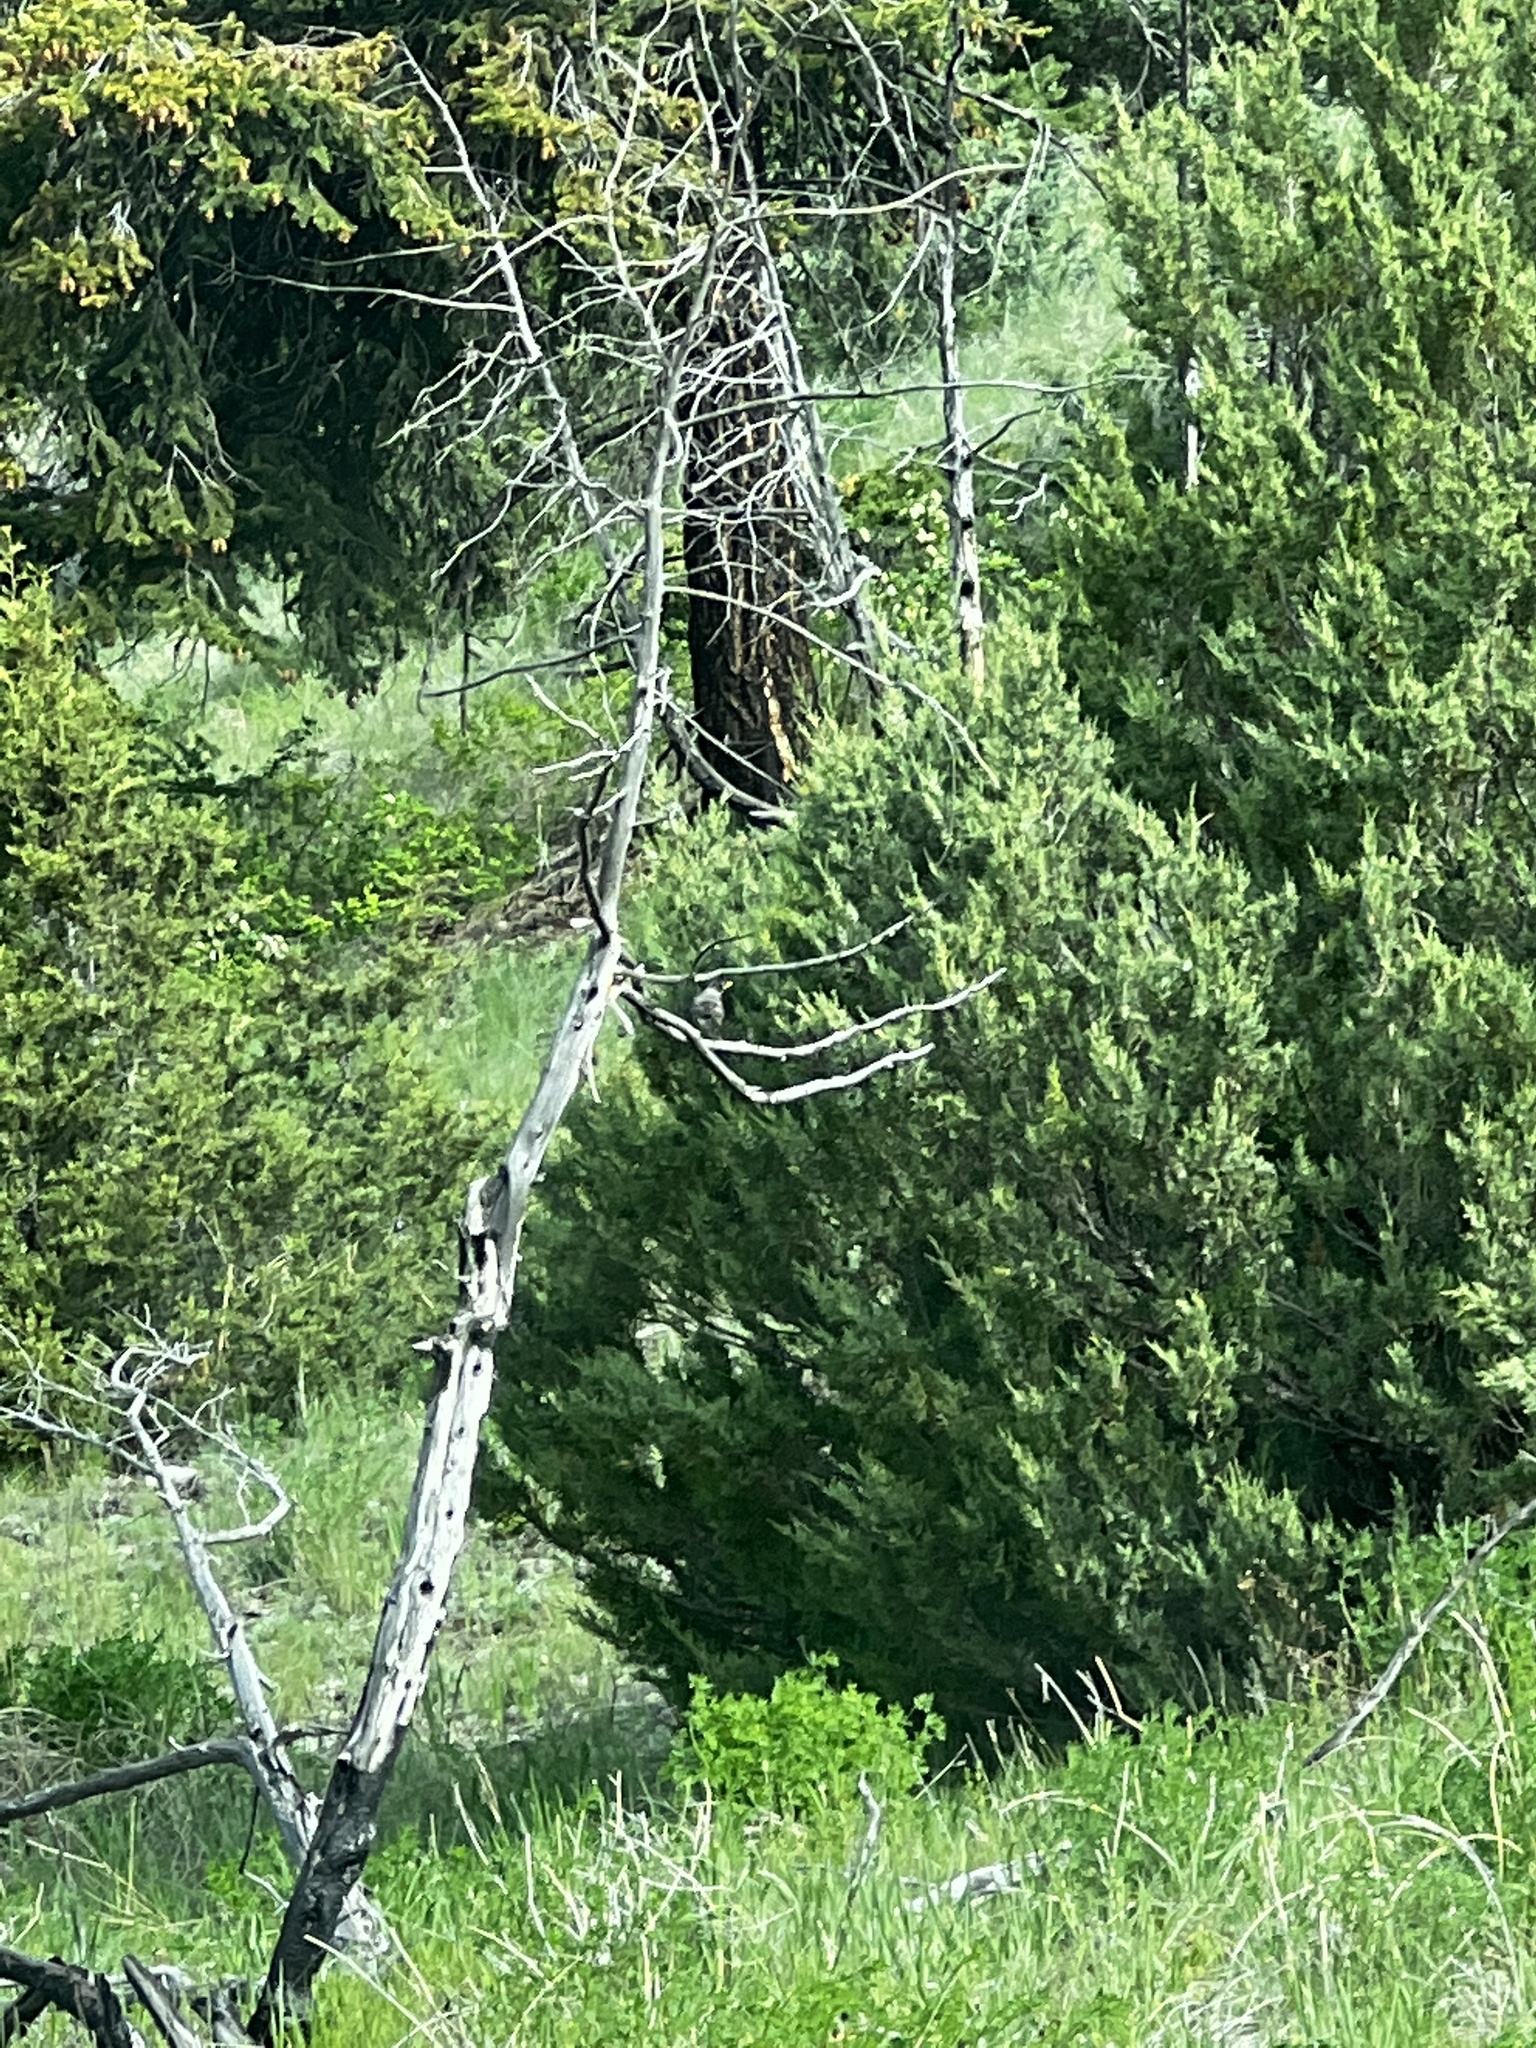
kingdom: Animalia
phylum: Chordata
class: Aves
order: Passeriformes
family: Turdidae
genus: Turdus
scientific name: Turdus migratorius
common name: American robin
